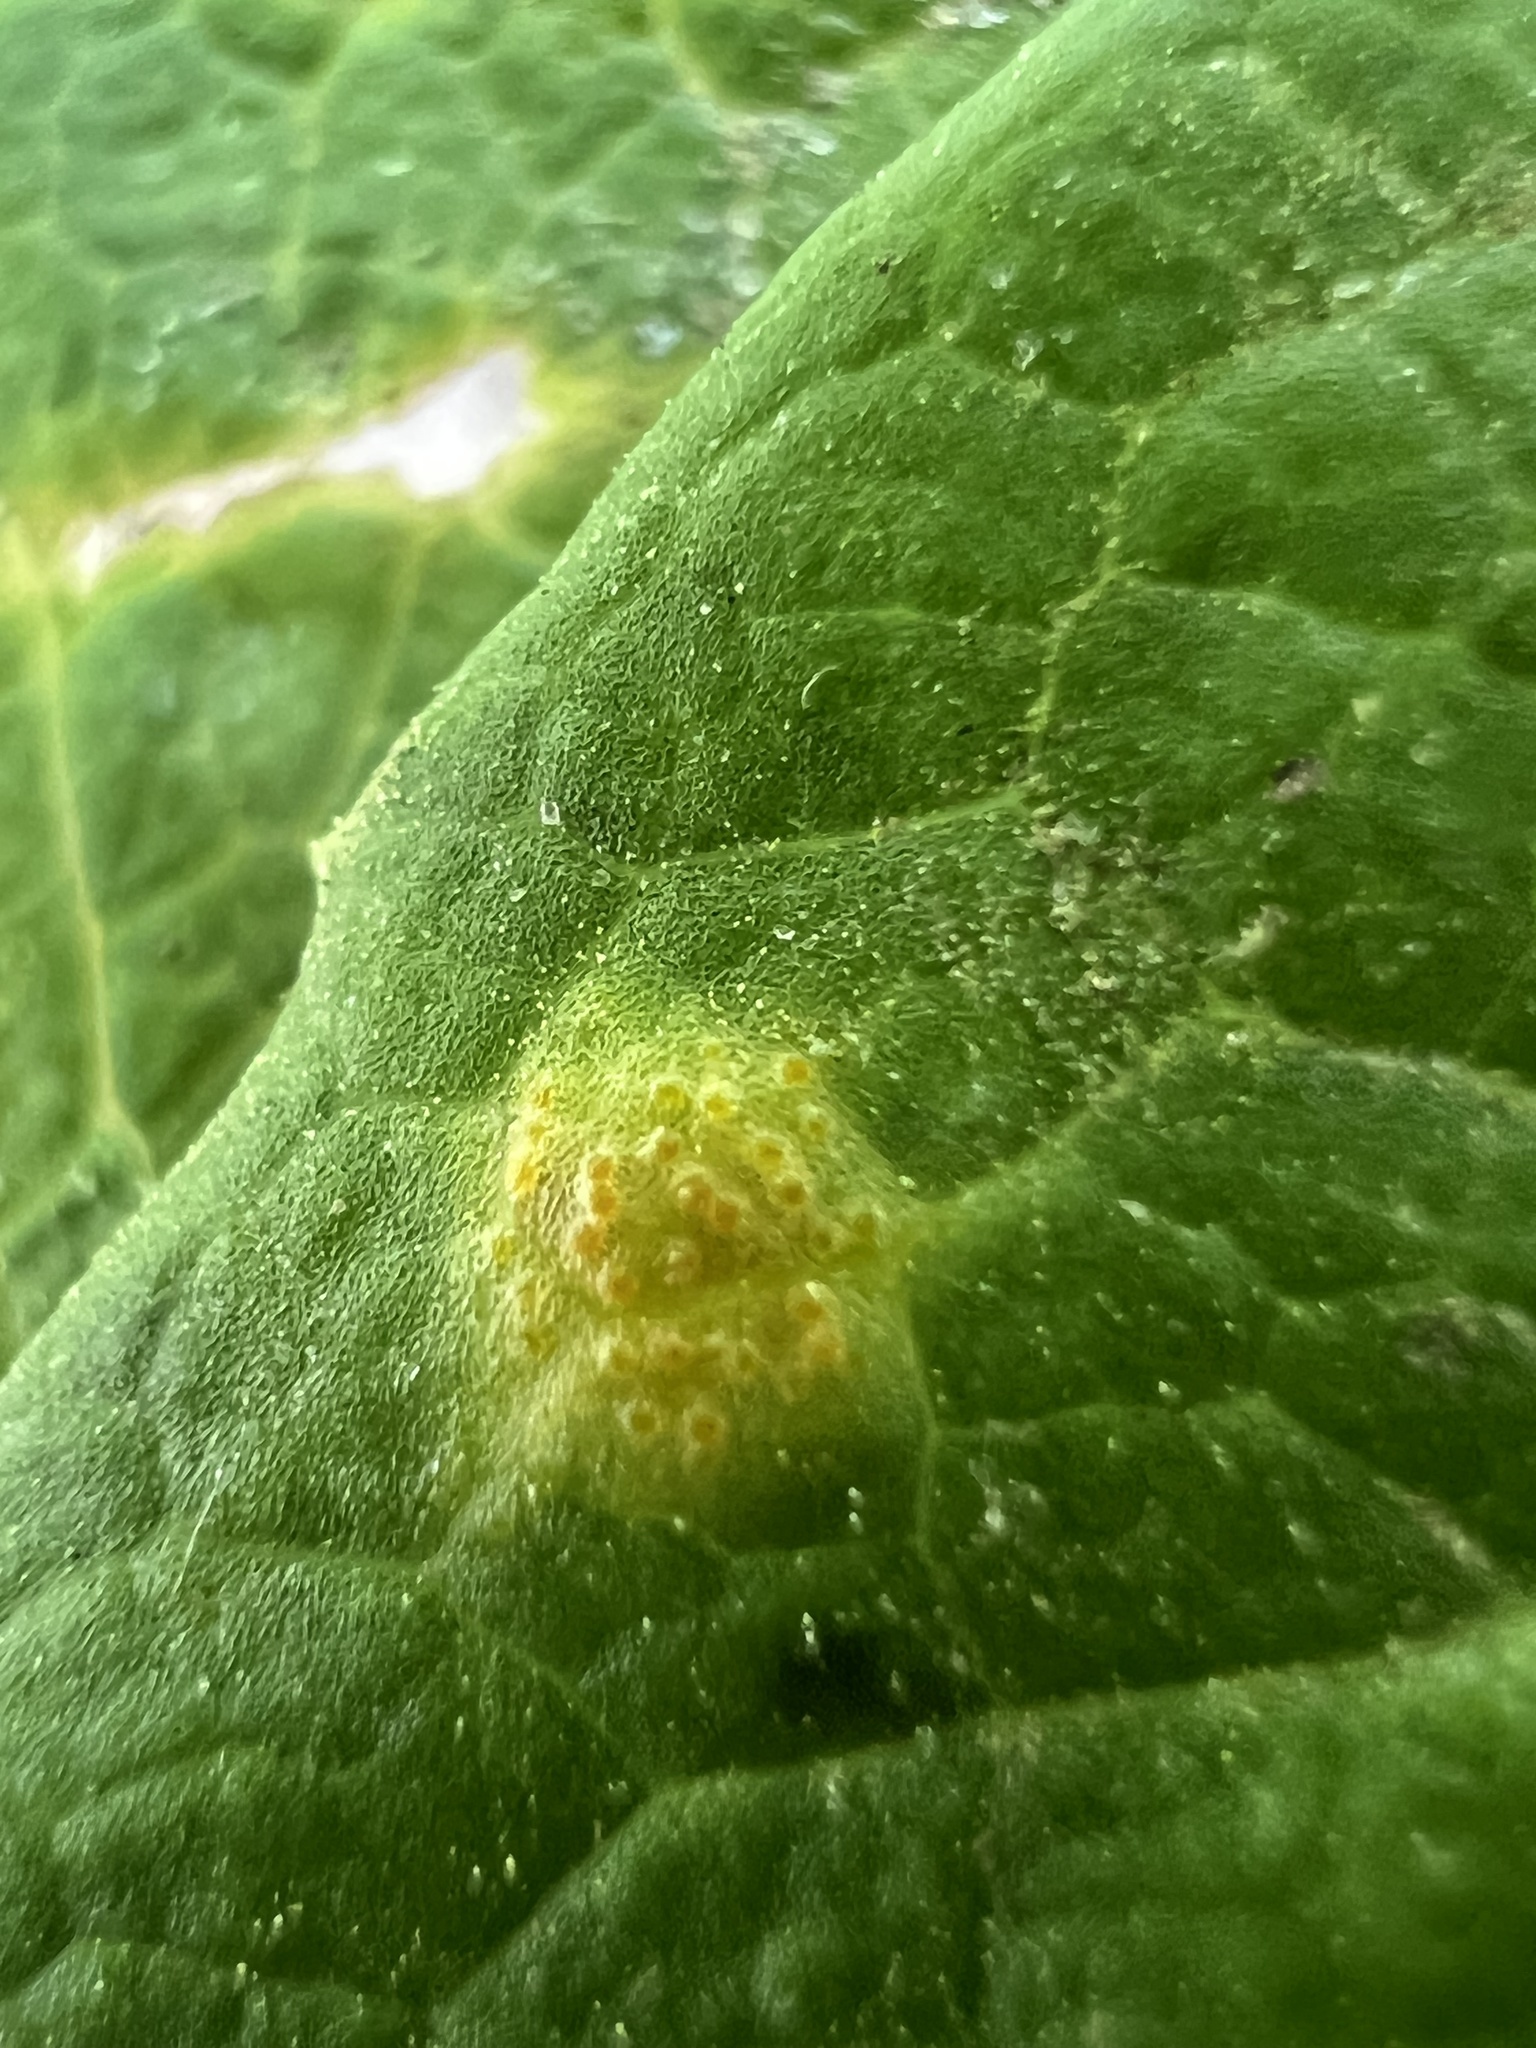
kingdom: Fungi
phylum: Basidiomycota
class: Pucciniomycetes
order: Pucciniales
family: Pucciniaceae
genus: Puccinia
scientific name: Puccinia podophylli
